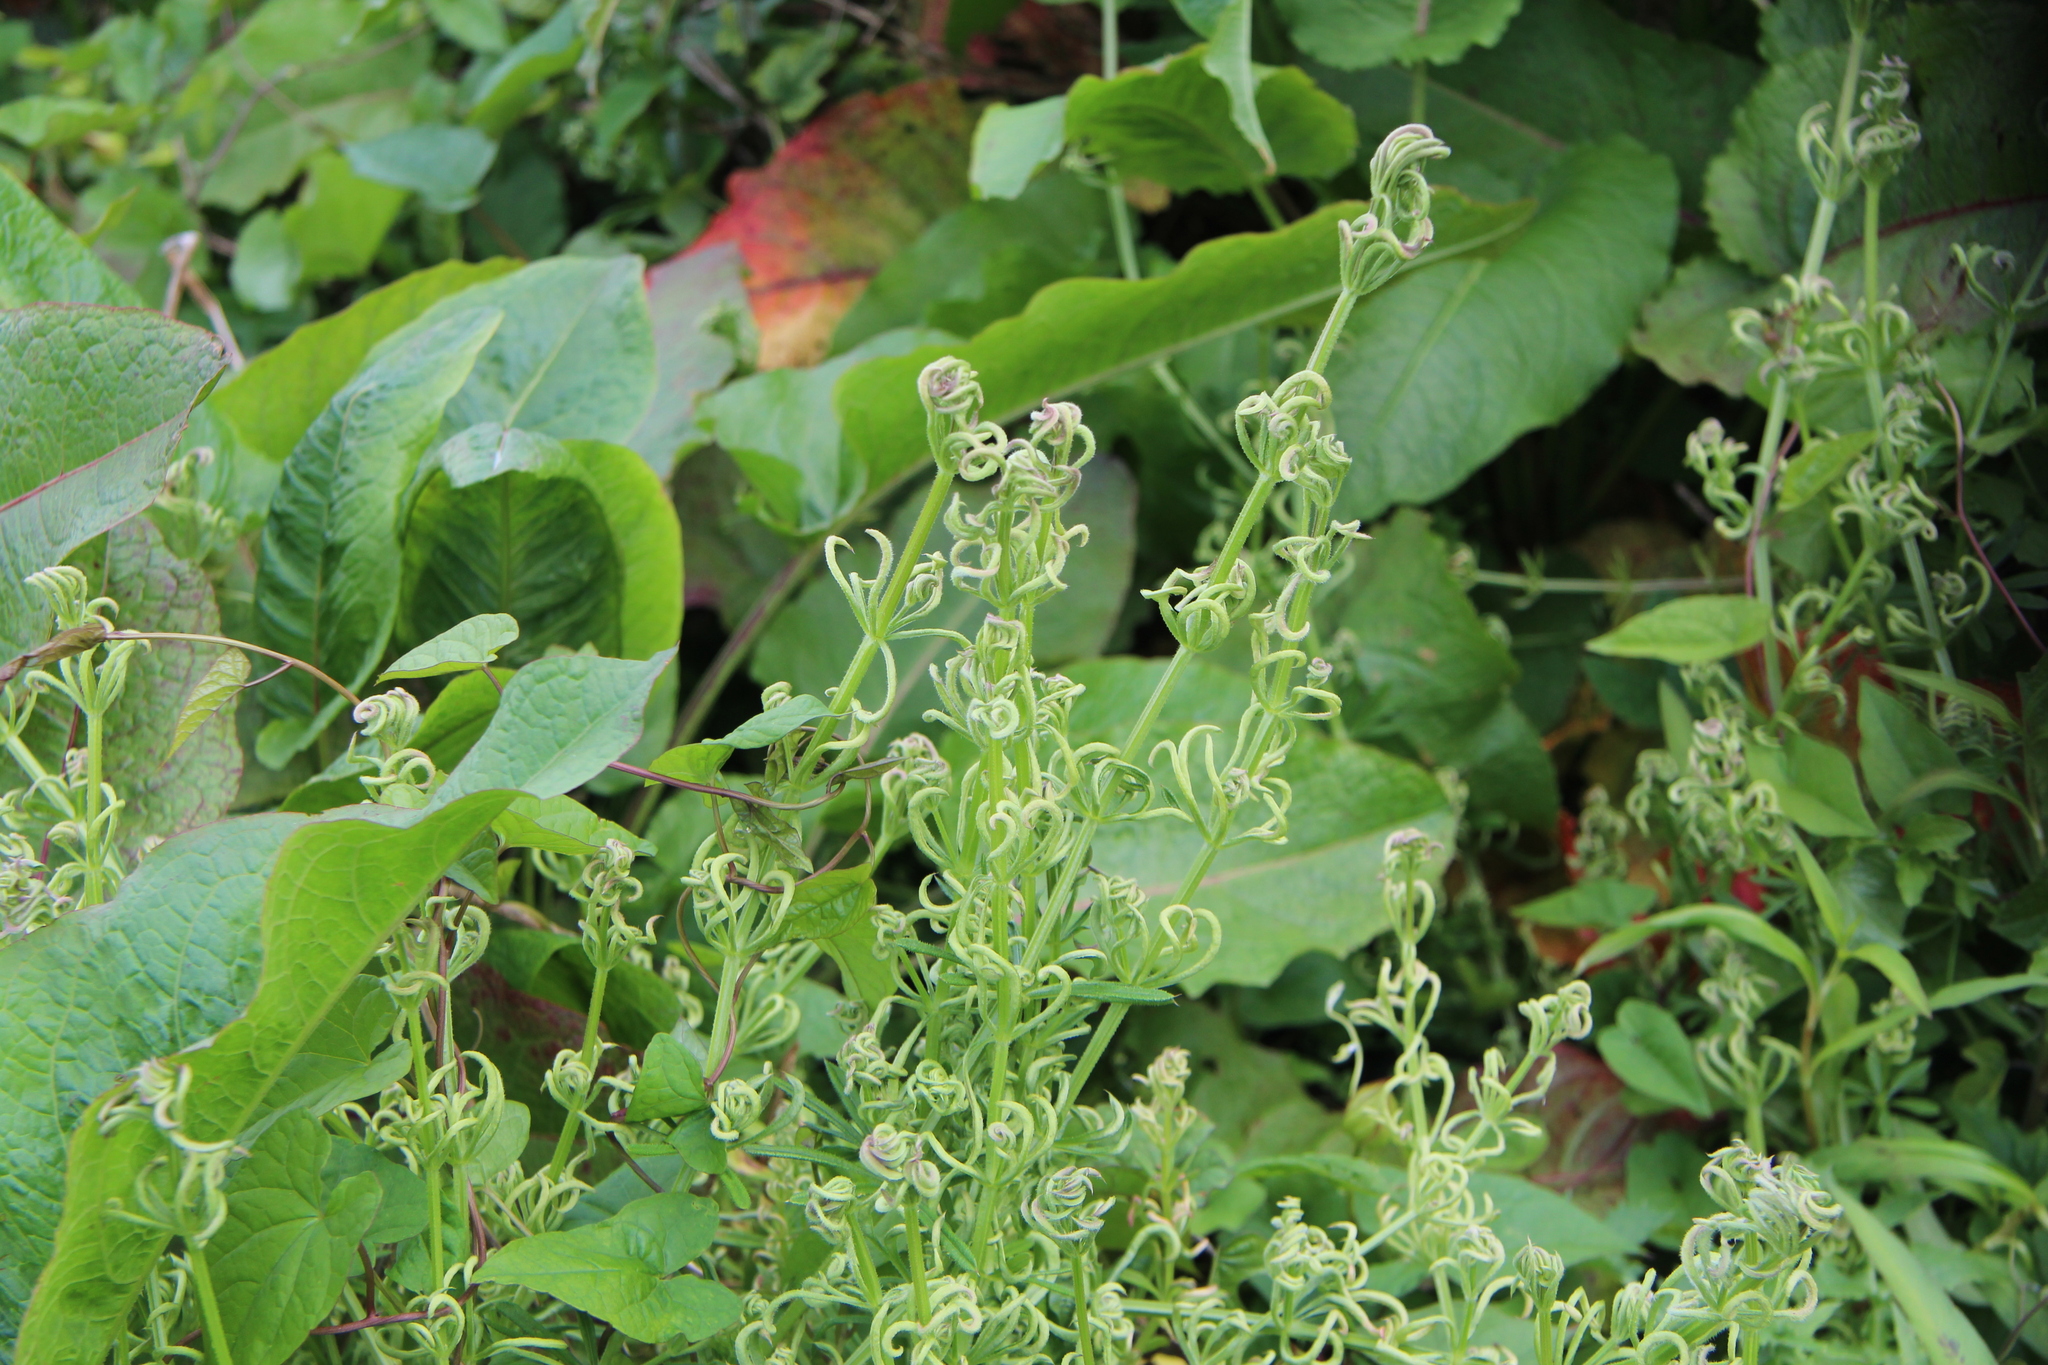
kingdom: Animalia
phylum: Arthropoda
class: Arachnida
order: Trombidiformes
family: Eriophyidae
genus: Cecidophyes
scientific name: Cecidophyes rouhollahi
